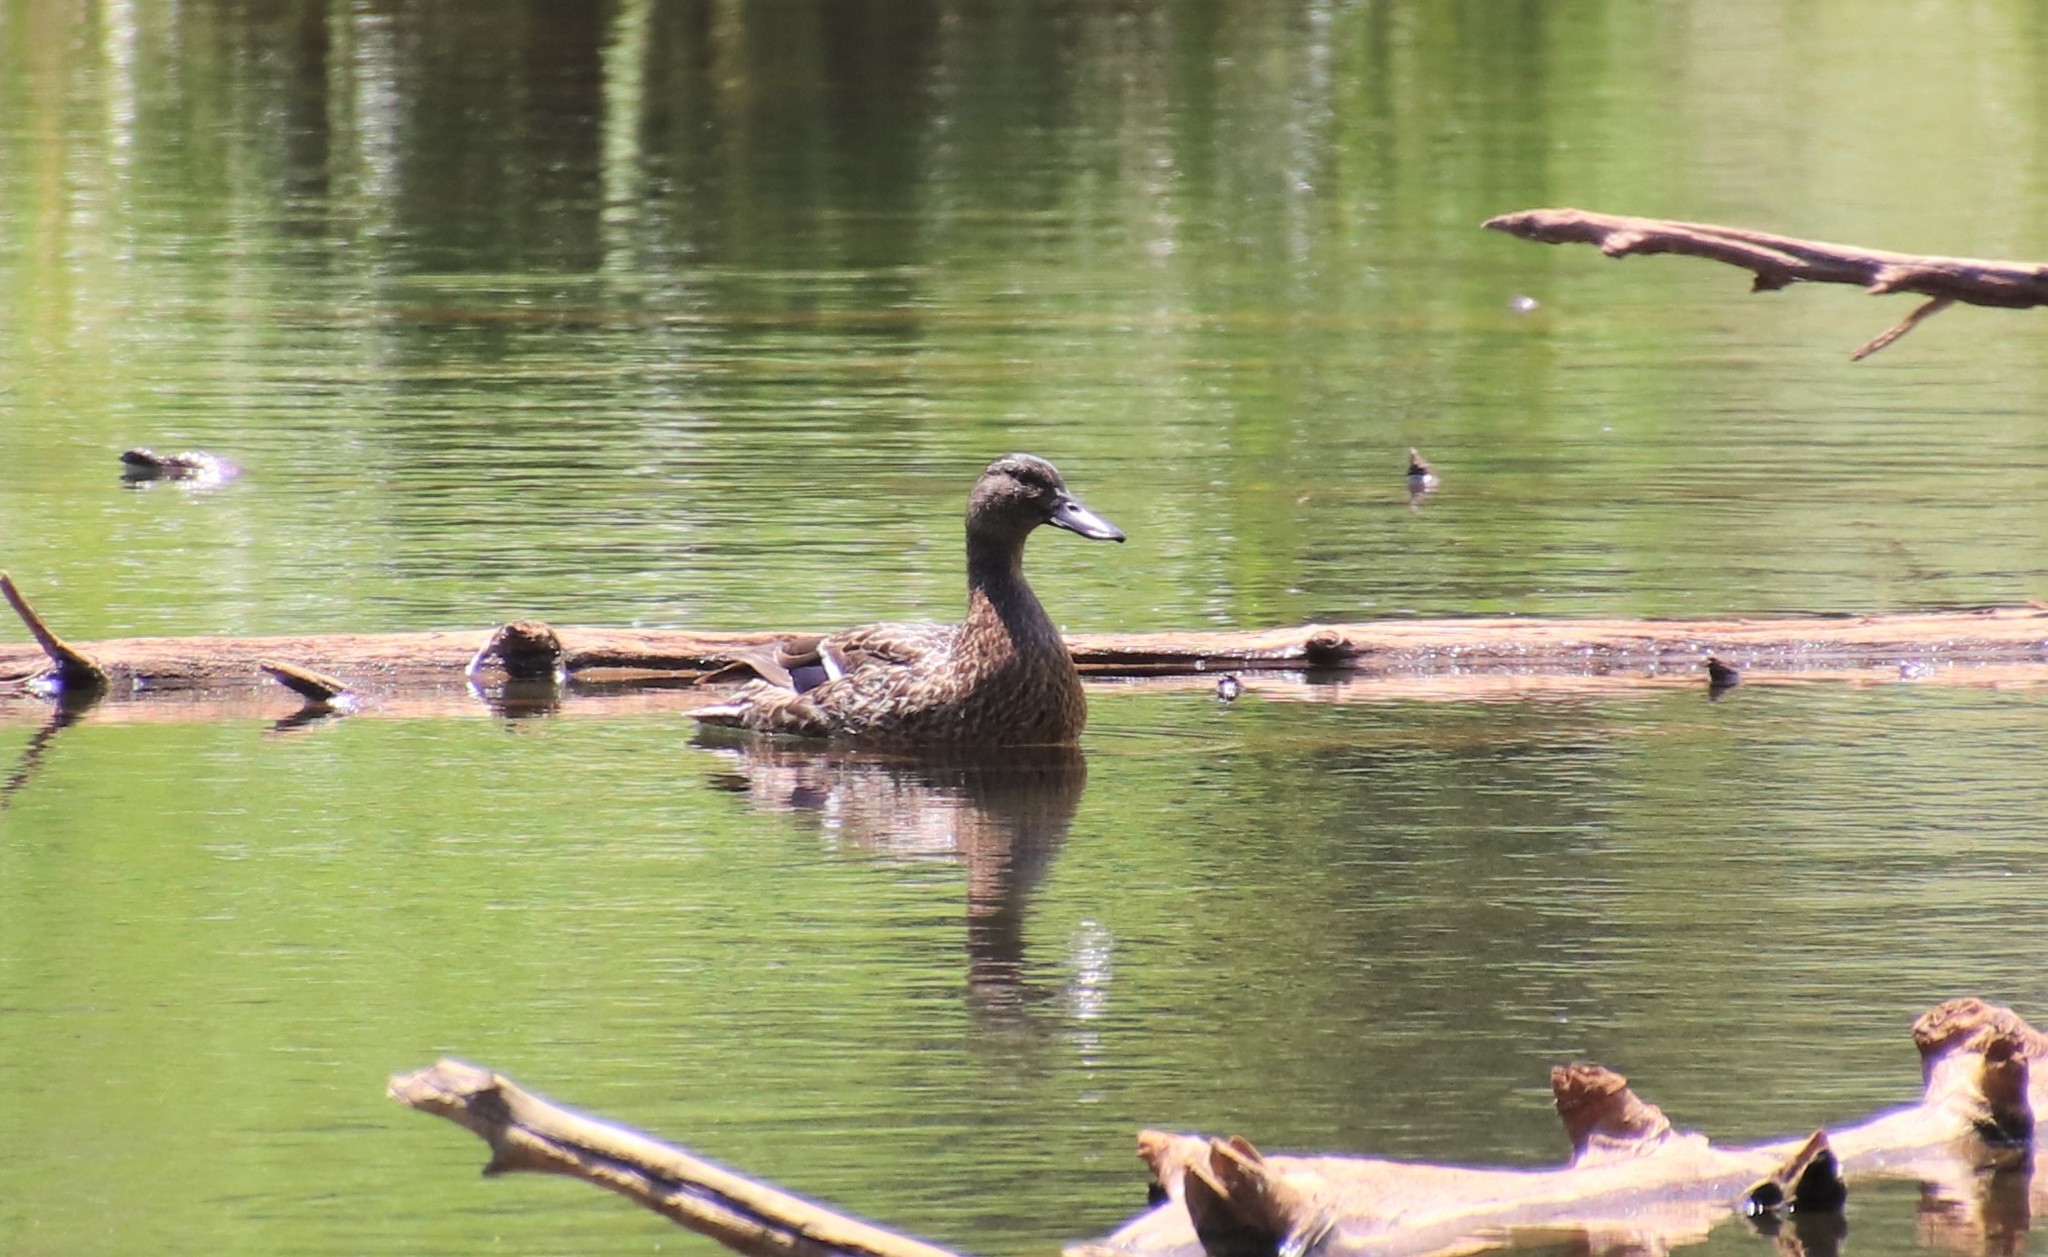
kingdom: Animalia
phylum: Chordata
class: Aves
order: Anseriformes
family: Anatidae
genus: Anas
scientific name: Anas platyrhynchos
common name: Mallard
